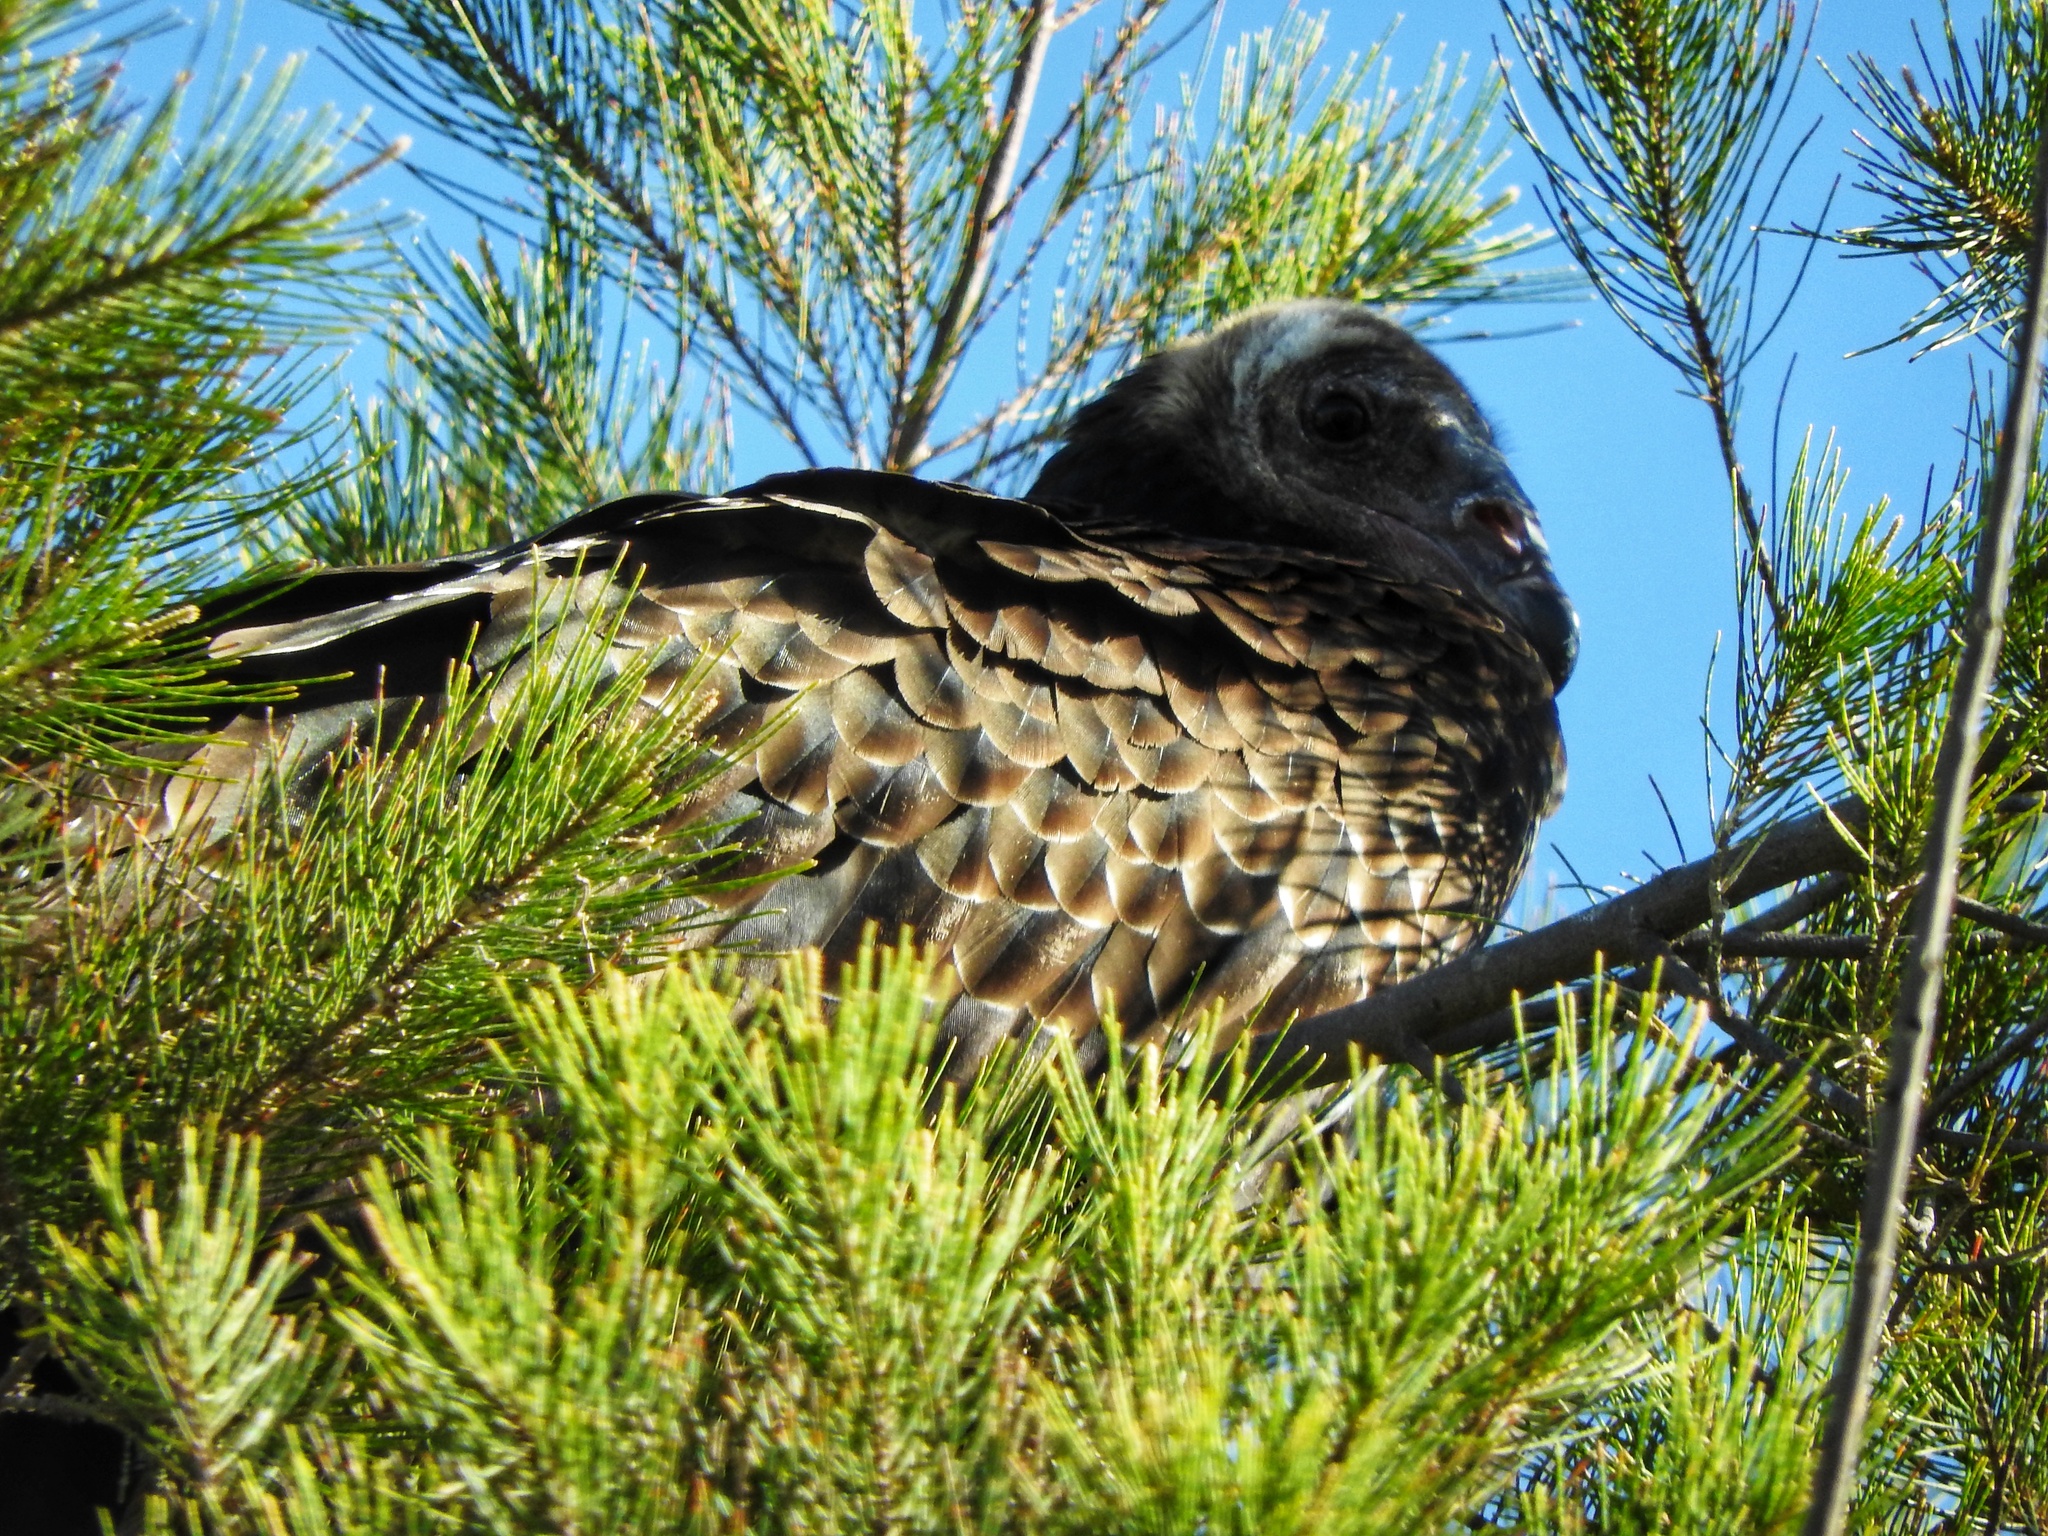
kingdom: Animalia
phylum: Chordata
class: Aves
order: Accipitriformes
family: Cathartidae
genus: Cathartes
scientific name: Cathartes aura
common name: Turkey vulture
